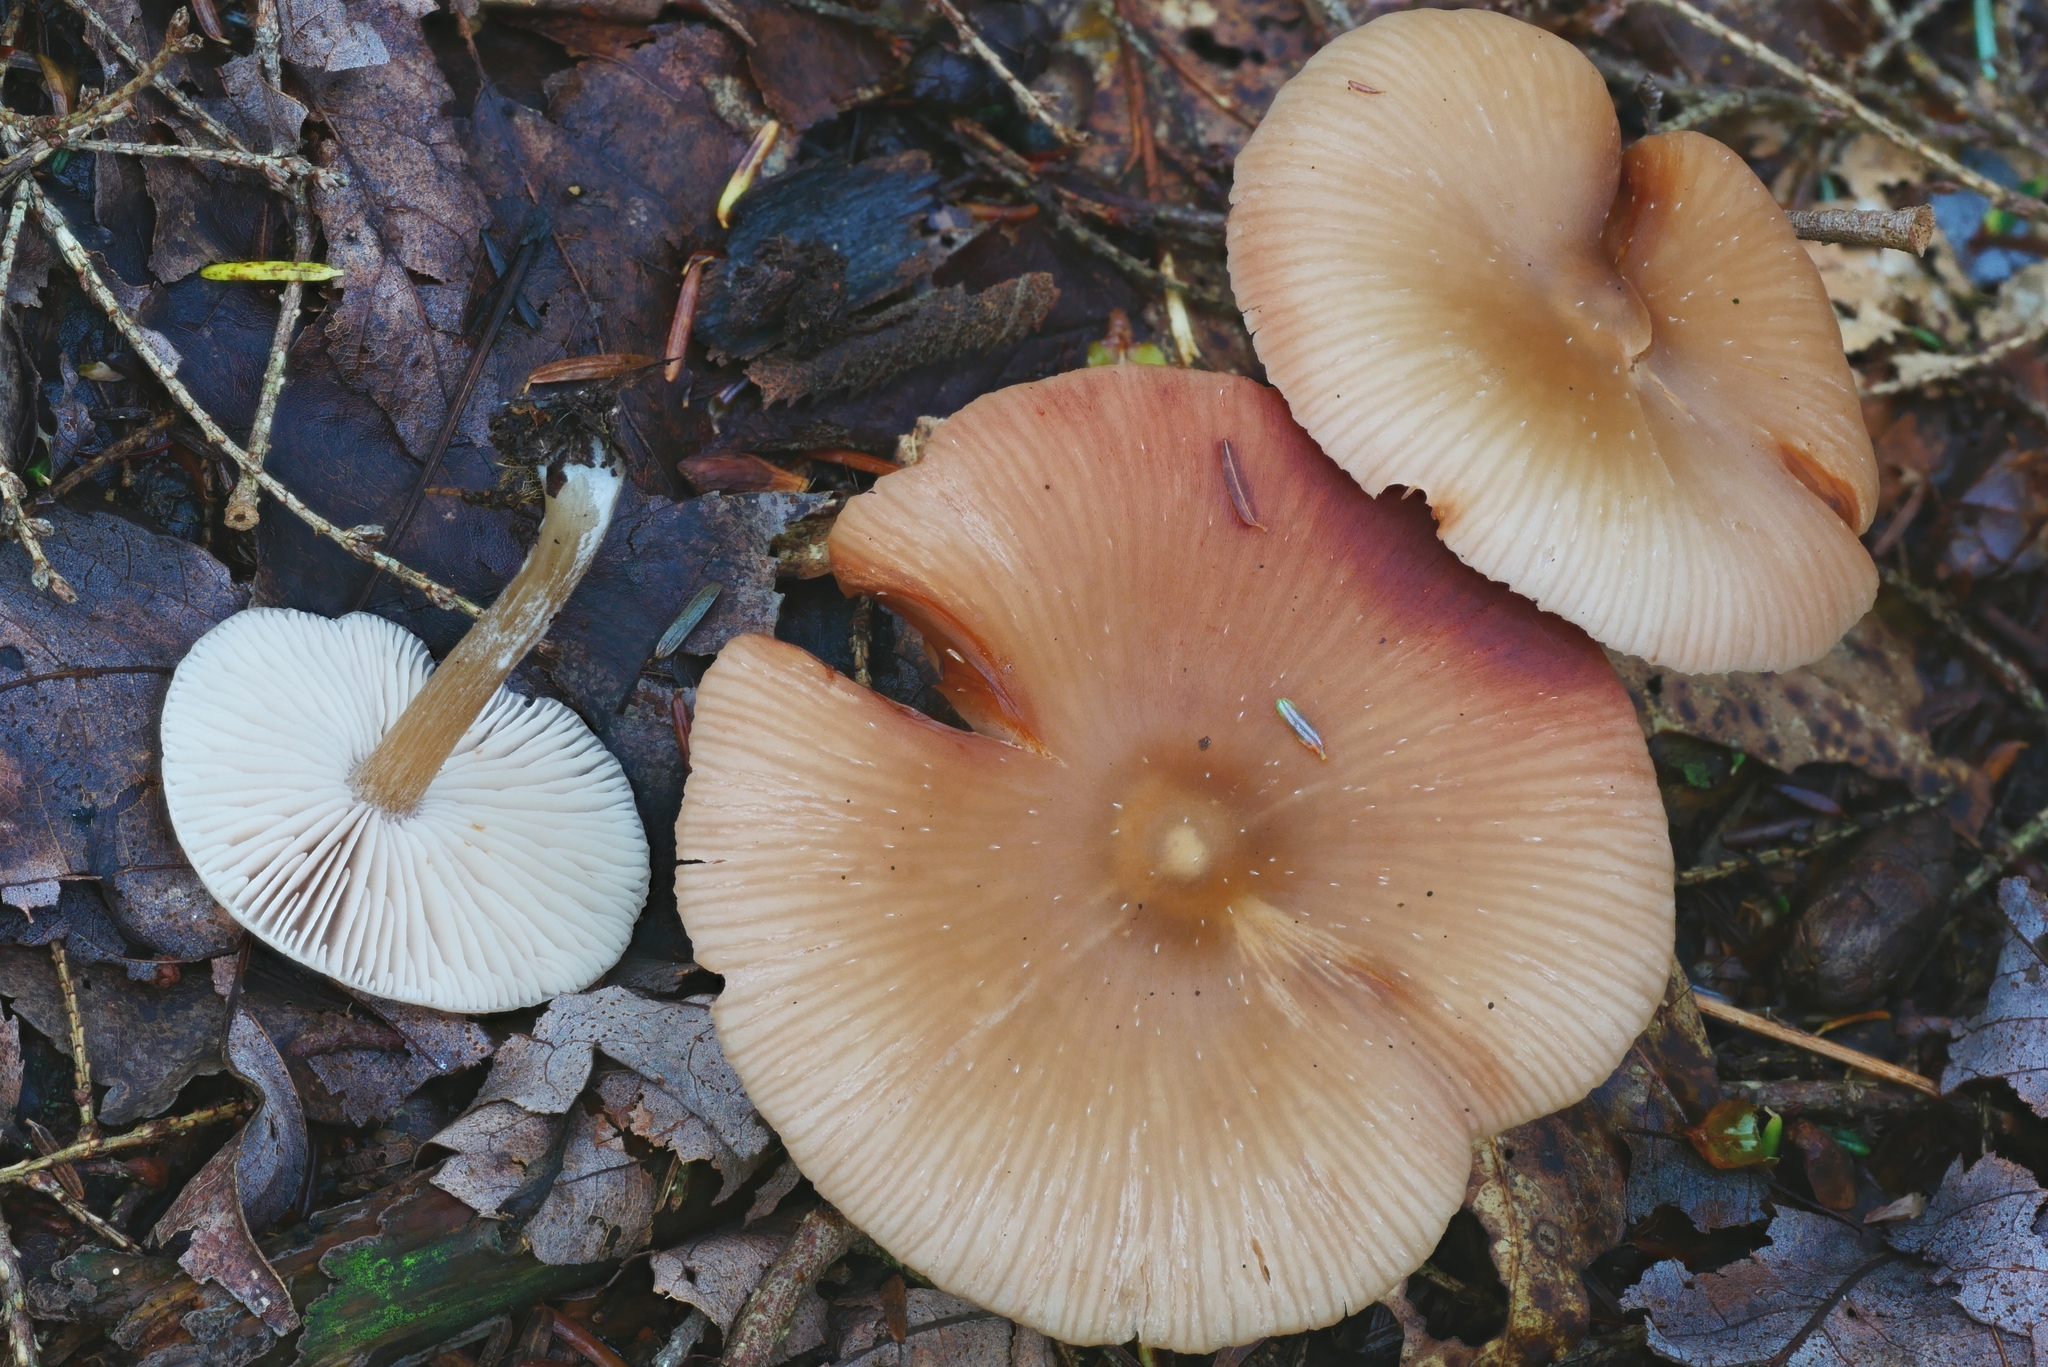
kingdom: Fungi
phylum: Basidiomycota
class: Agaricomycetes
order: Agaricales
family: Entolomataceae
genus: Entoloma
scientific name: Entoloma strictius
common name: Straight-stalked entoloma
